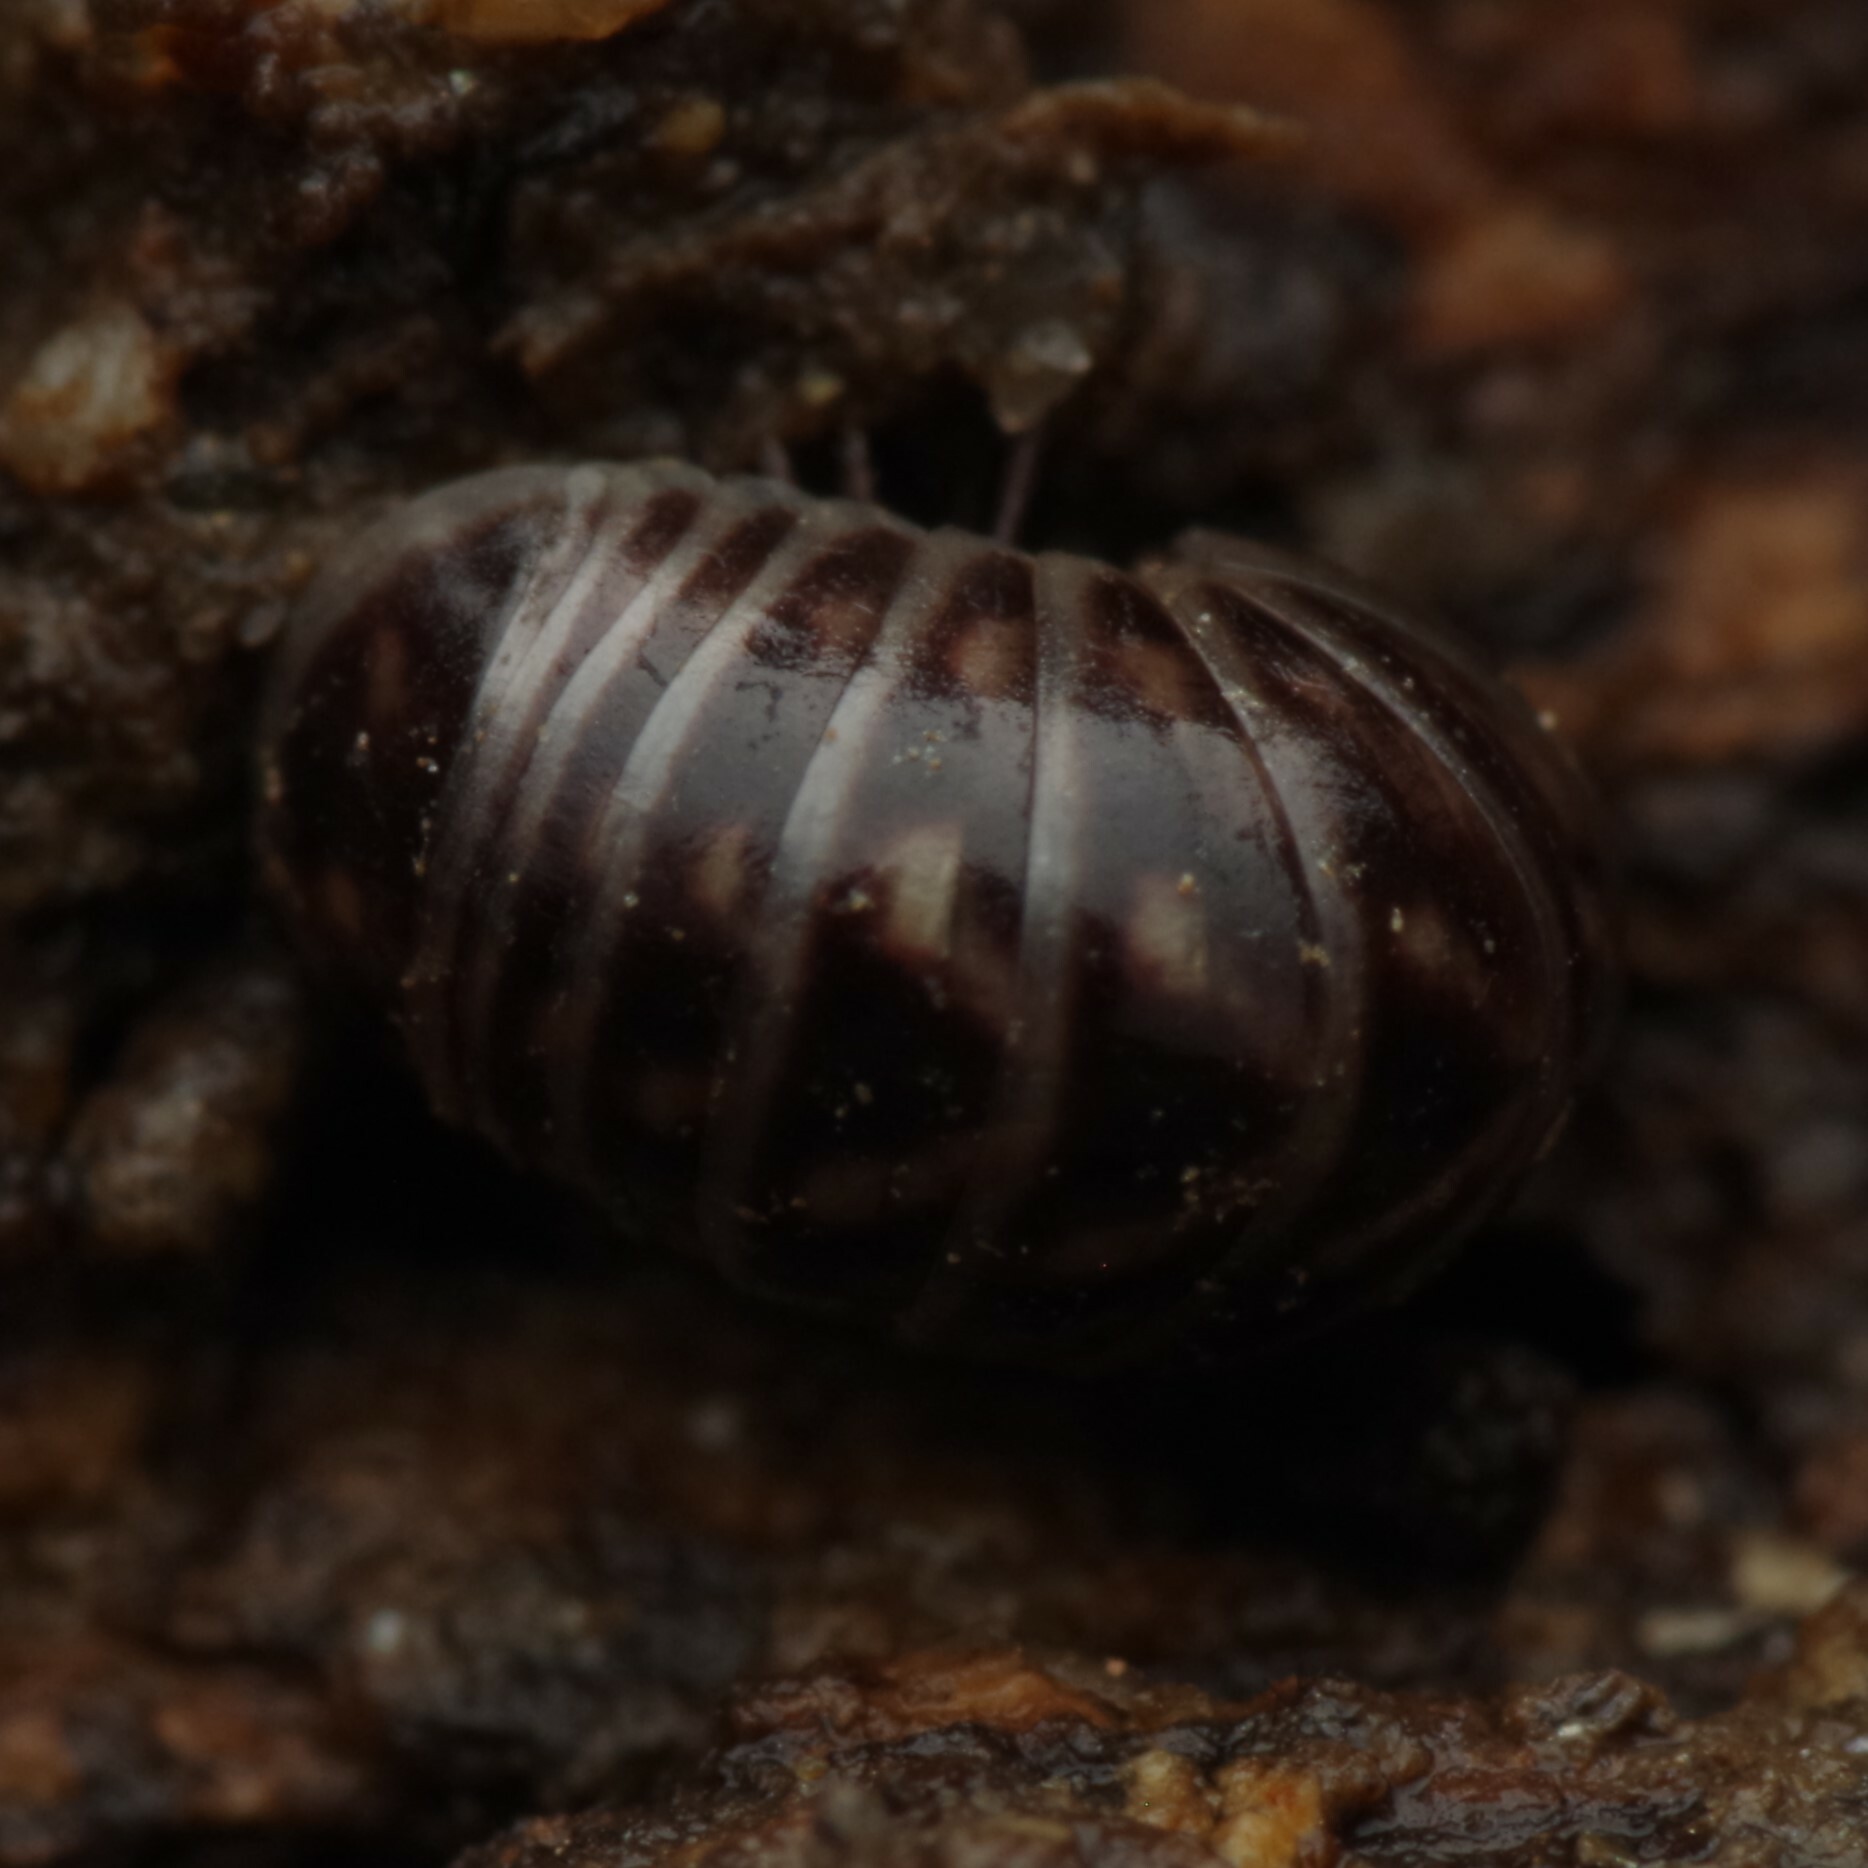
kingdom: Animalia
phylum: Arthropoda
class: Diplopoda
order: Glomerida
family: Glomeridae
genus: Glomeris
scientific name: Glomeris marginata
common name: Bordered pill millipede
